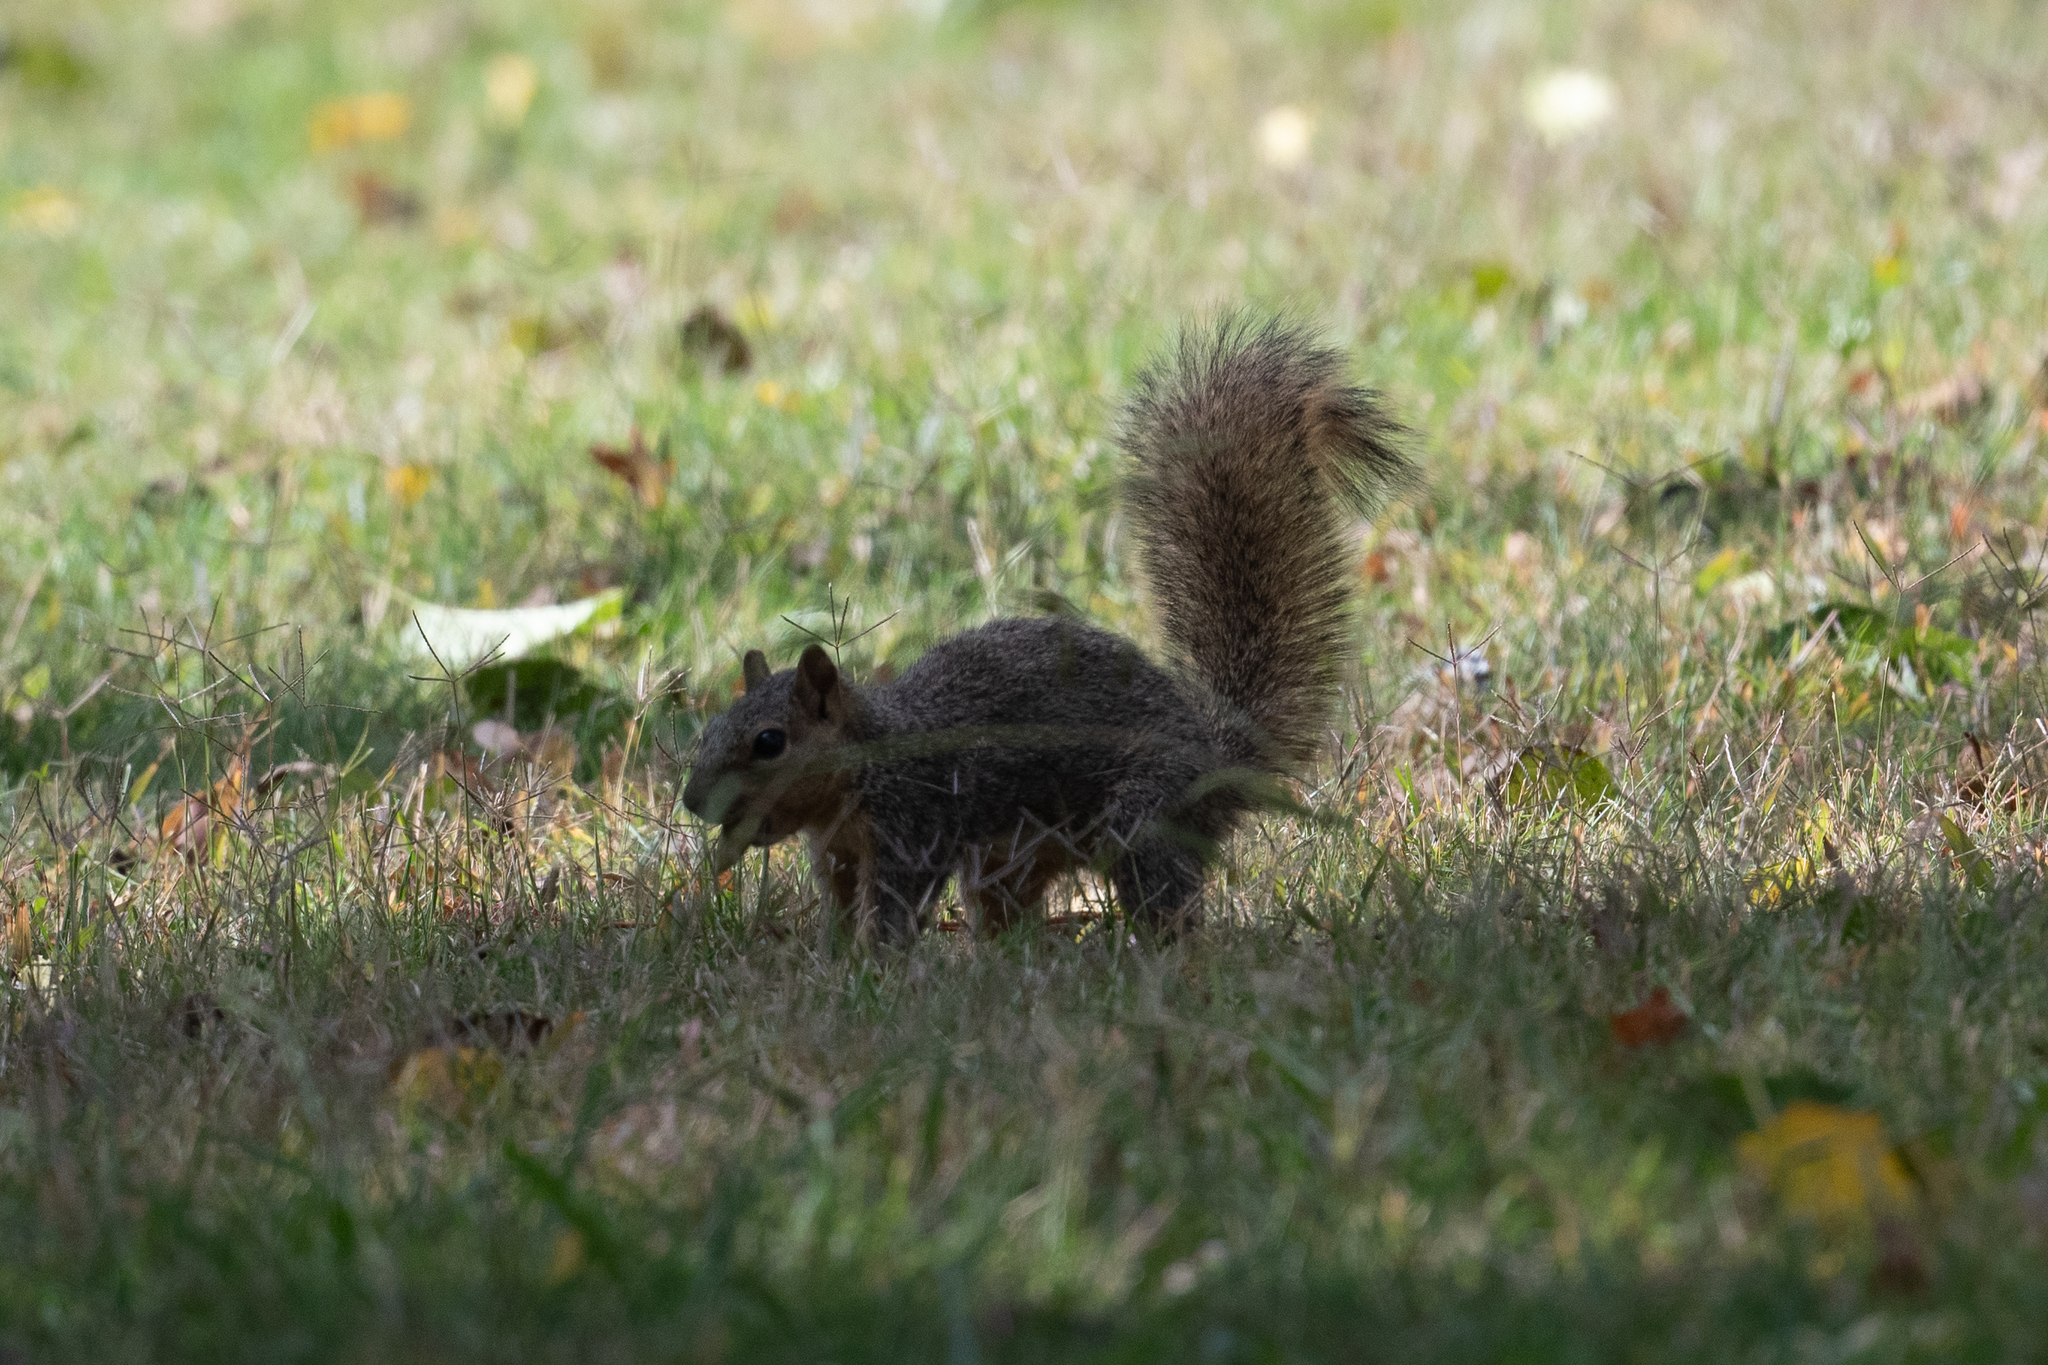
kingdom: Animalia
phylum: Chordata
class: Mammalia
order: Rodentia
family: Sciuridae
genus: Sciurus
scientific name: Sciurus niger
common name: Fox squirrel
